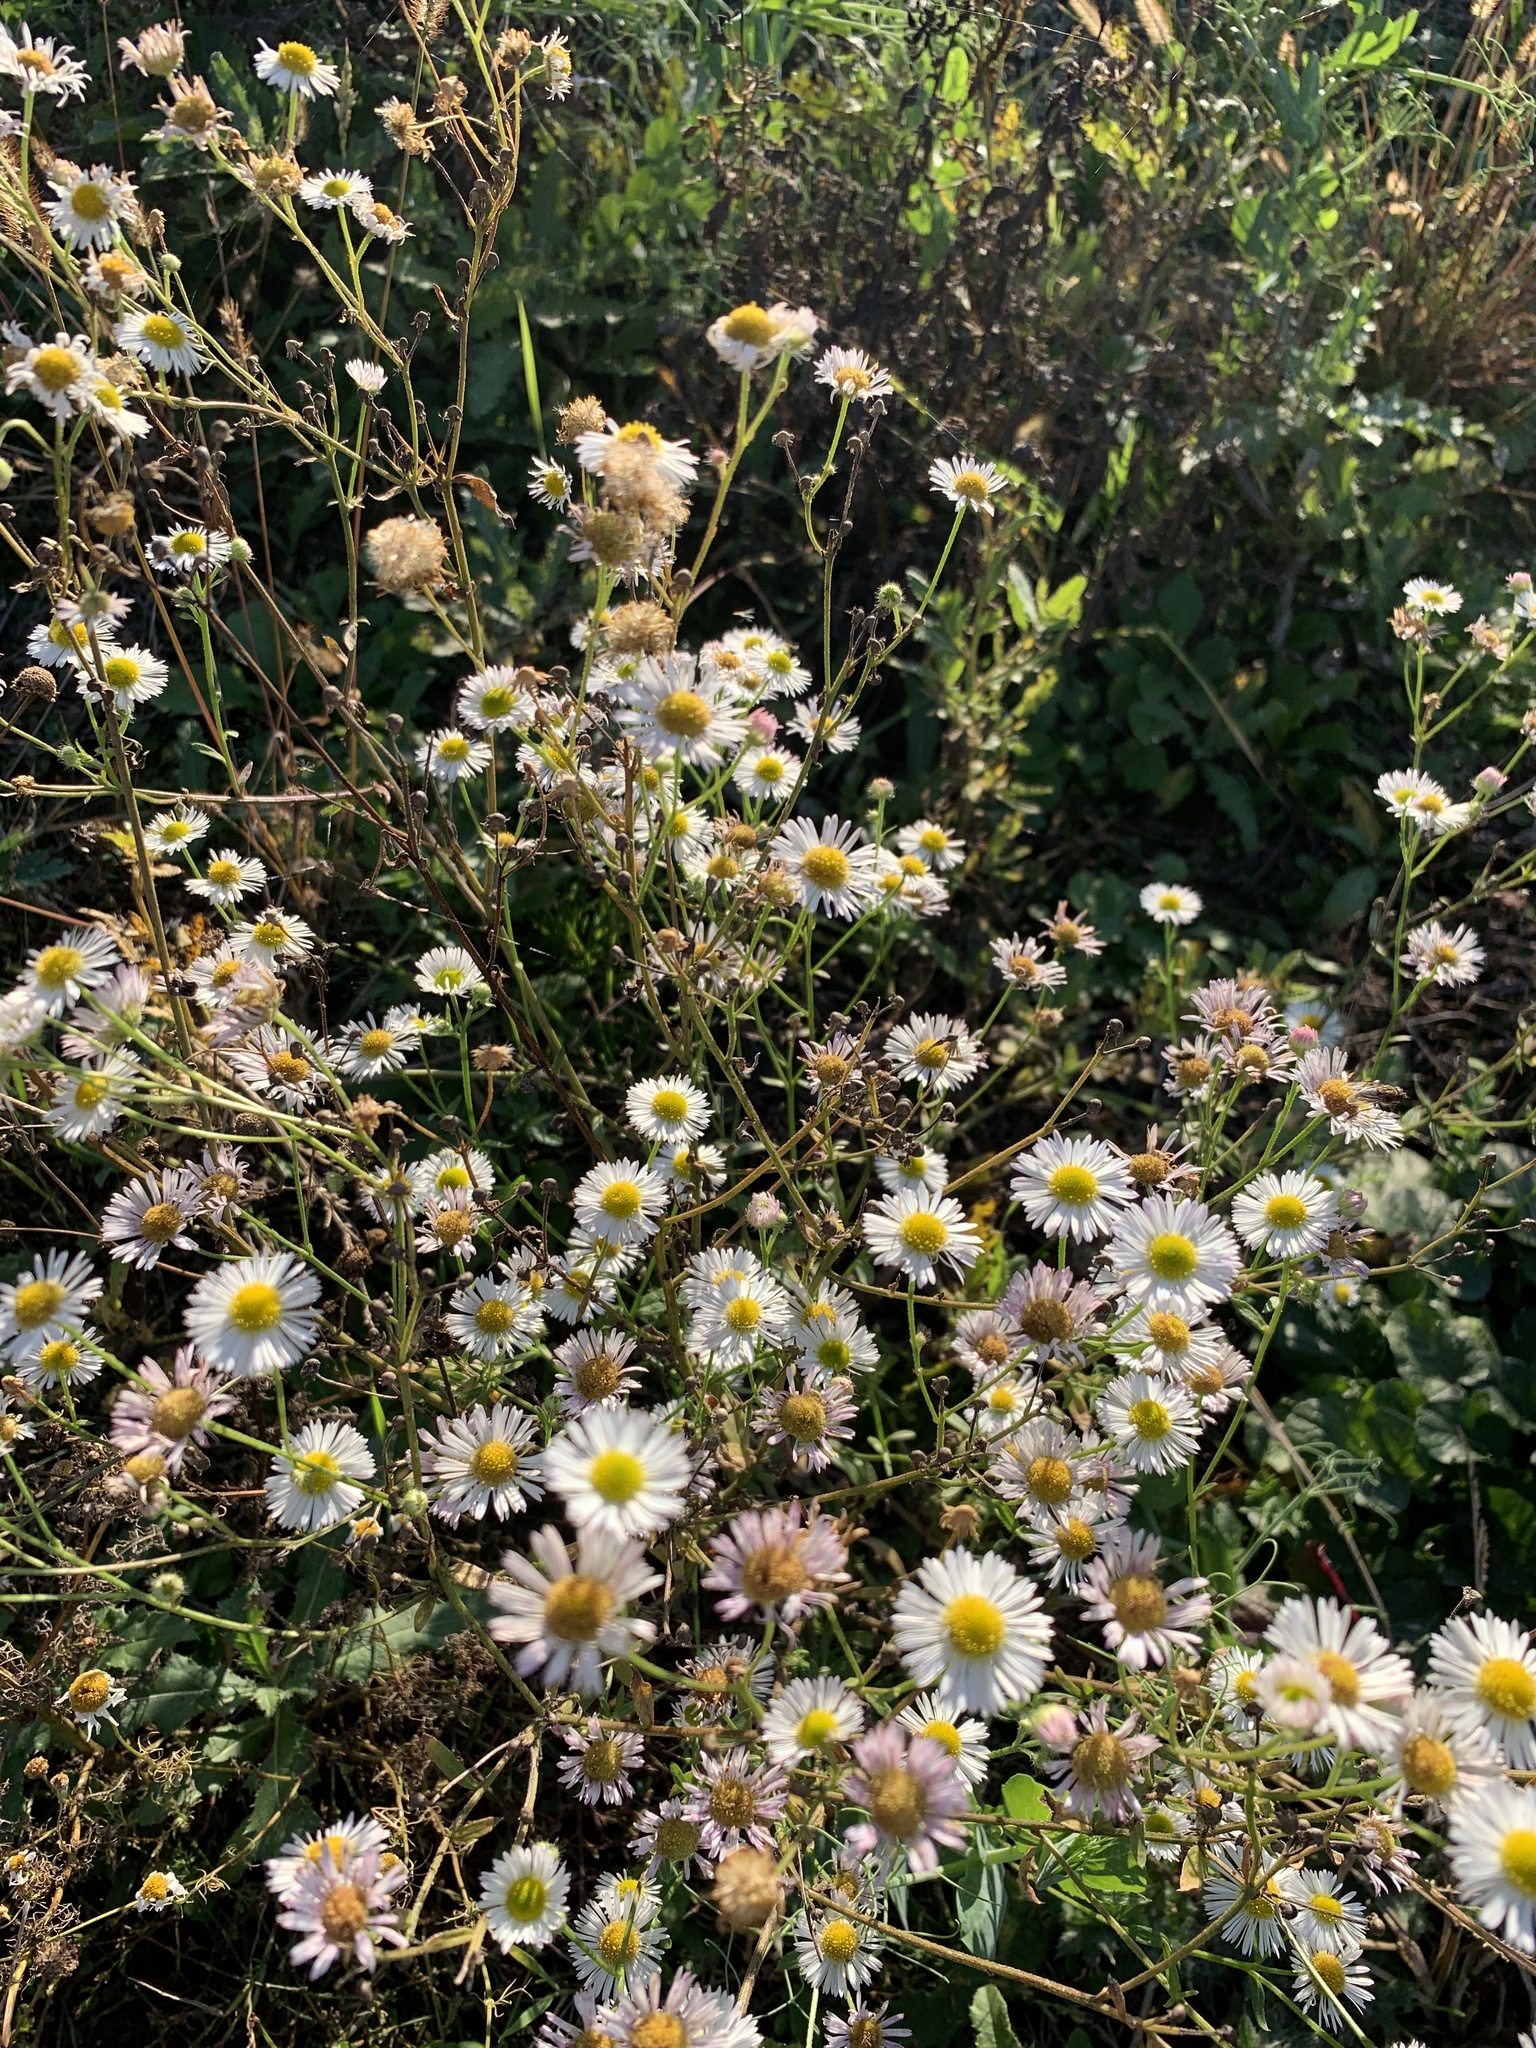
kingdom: Plantae
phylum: Tracheophyta
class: Magnoliopsida
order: Asterales
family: Asteraceae
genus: Erigeron
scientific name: Erigeron annuus
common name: Tall fleabane
